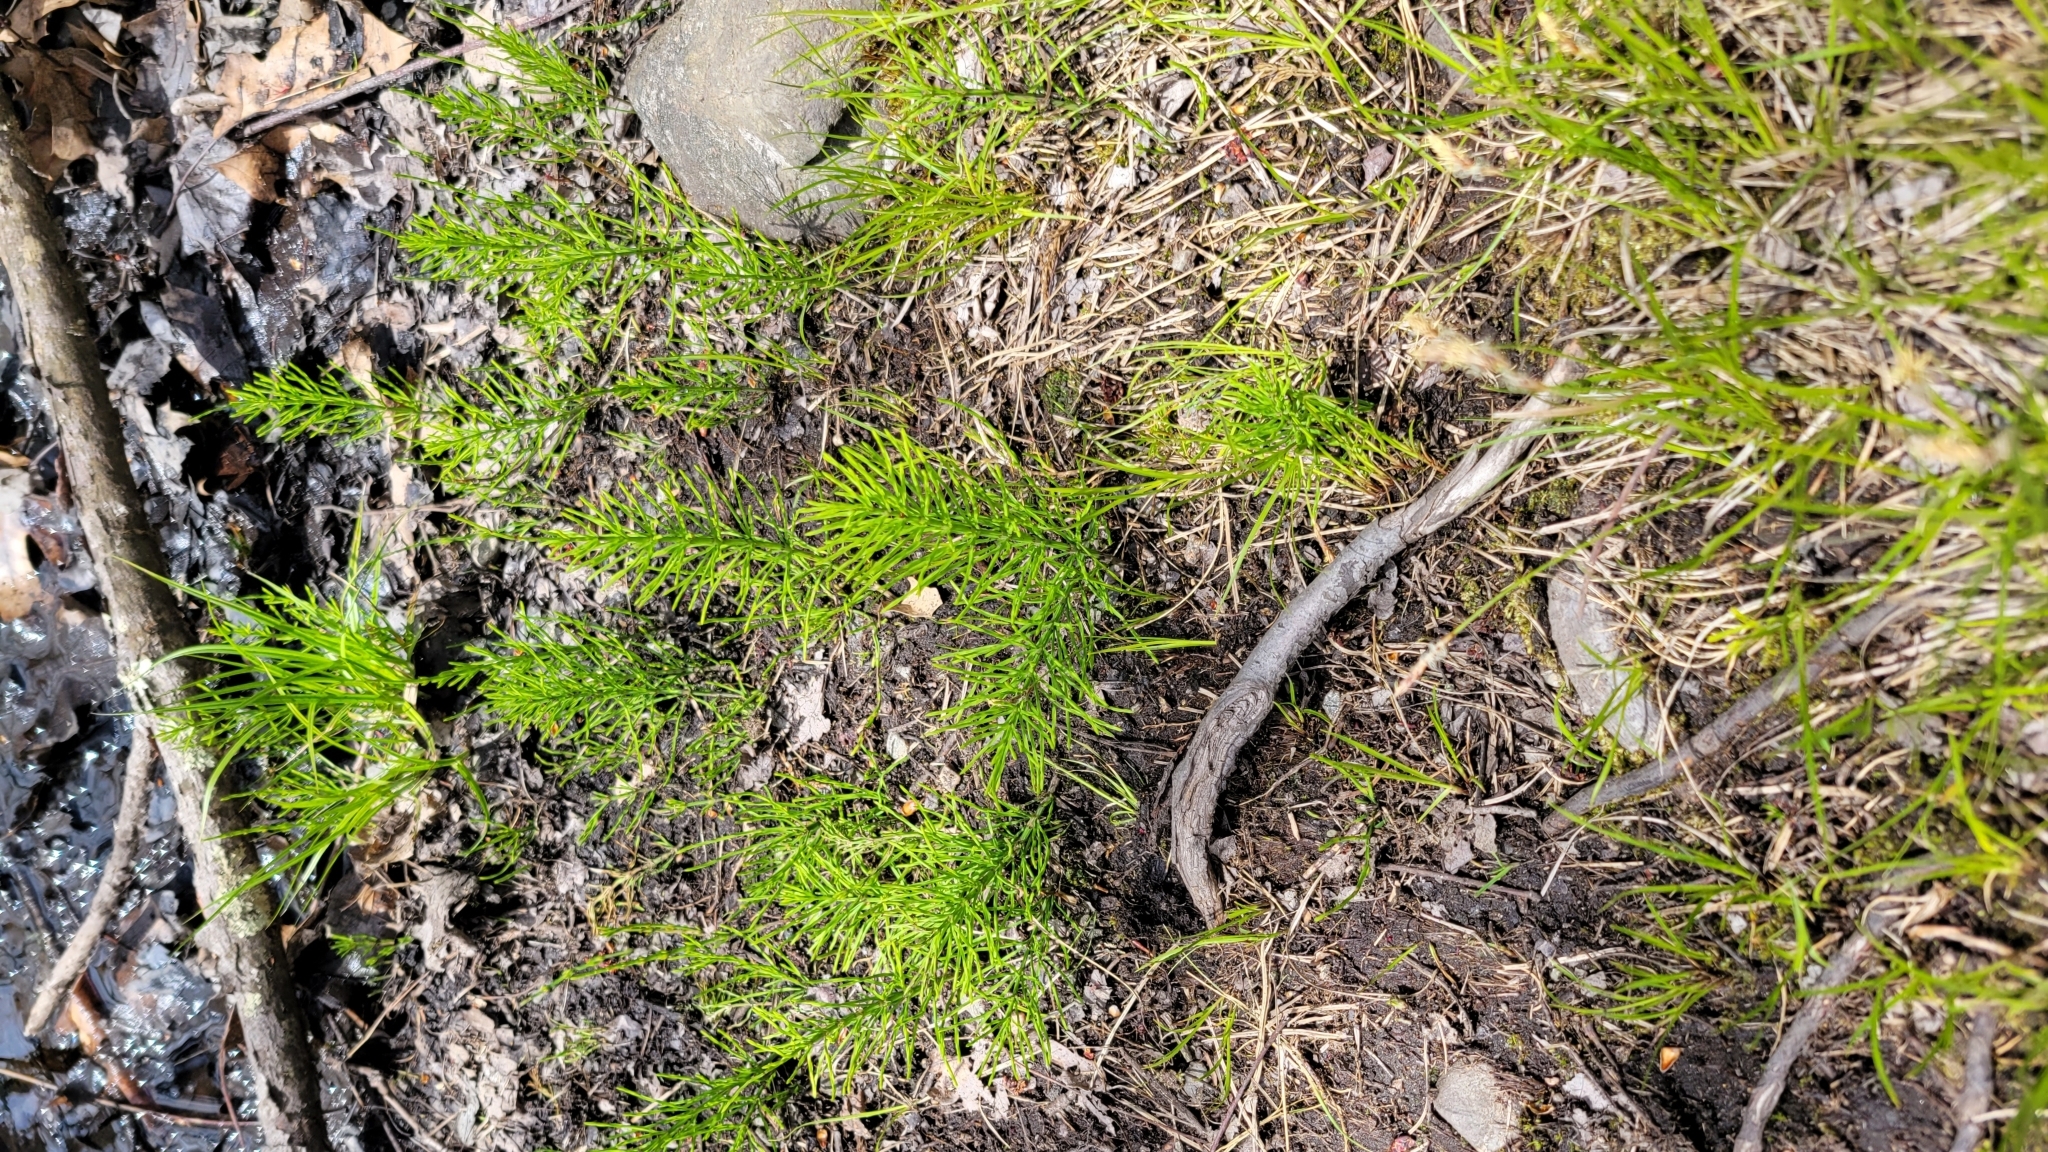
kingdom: Plantae
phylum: Tracheophyta
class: Polypodiopsida
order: Equisetales
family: Equisetaceae
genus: Equisetum
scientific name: Equisetum arvense
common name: Field horsetail
